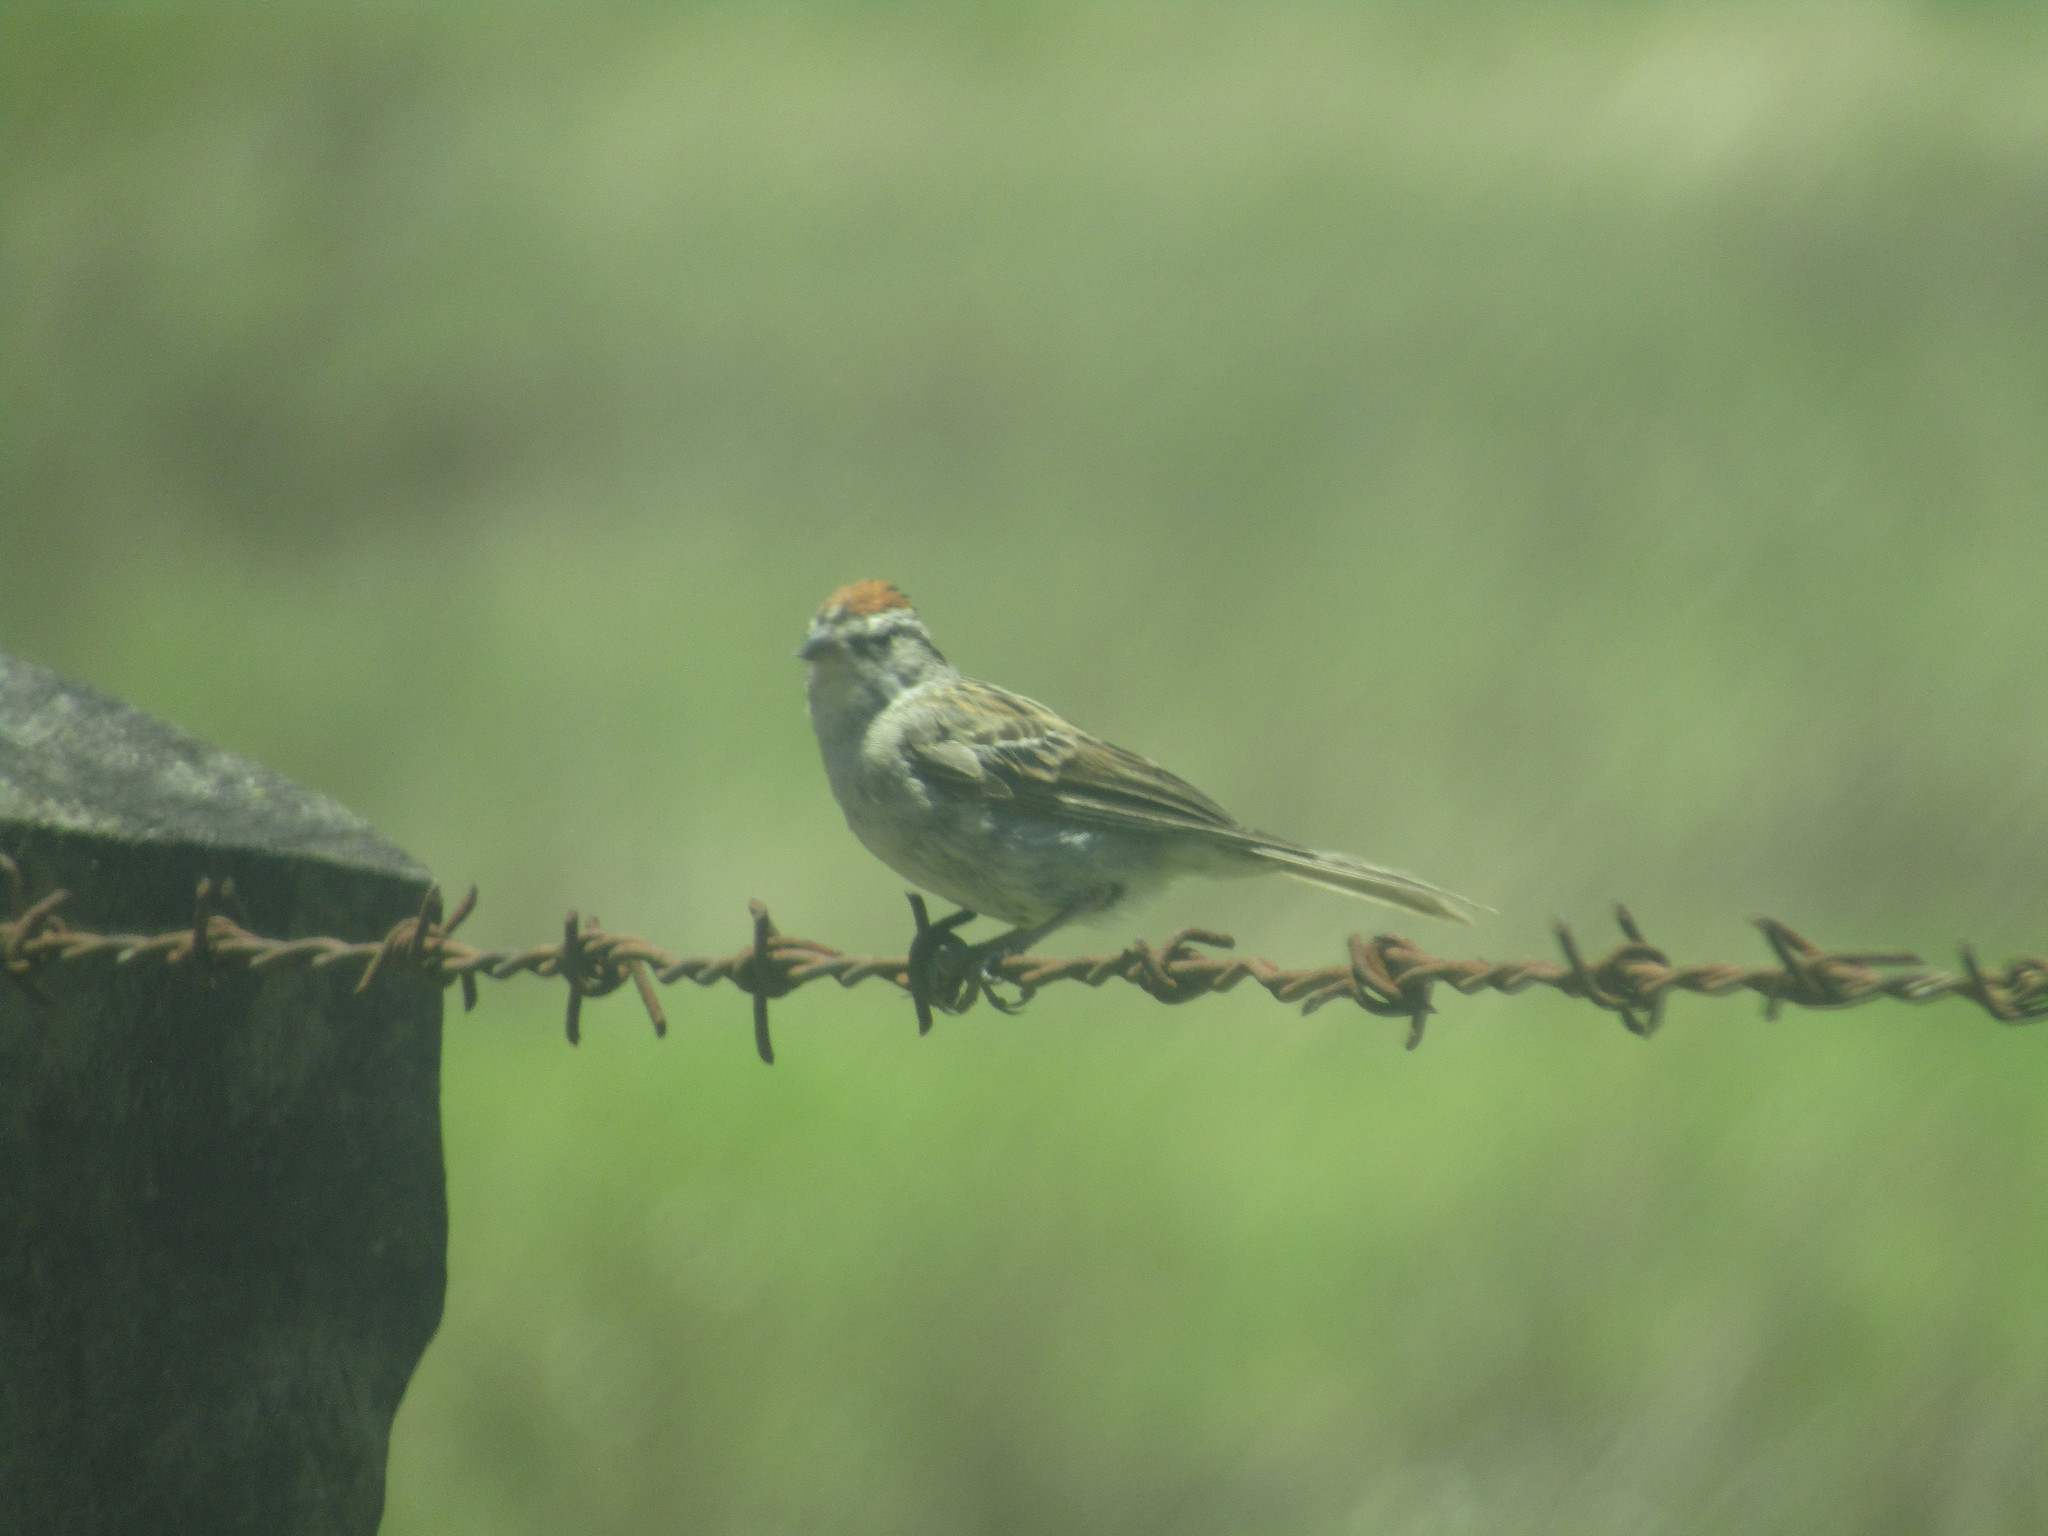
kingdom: Animalia
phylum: Chordata
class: Aves
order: Passeriformes
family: Passerellidae
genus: Spizella
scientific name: Spizella passerina
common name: Chipping sparrow
